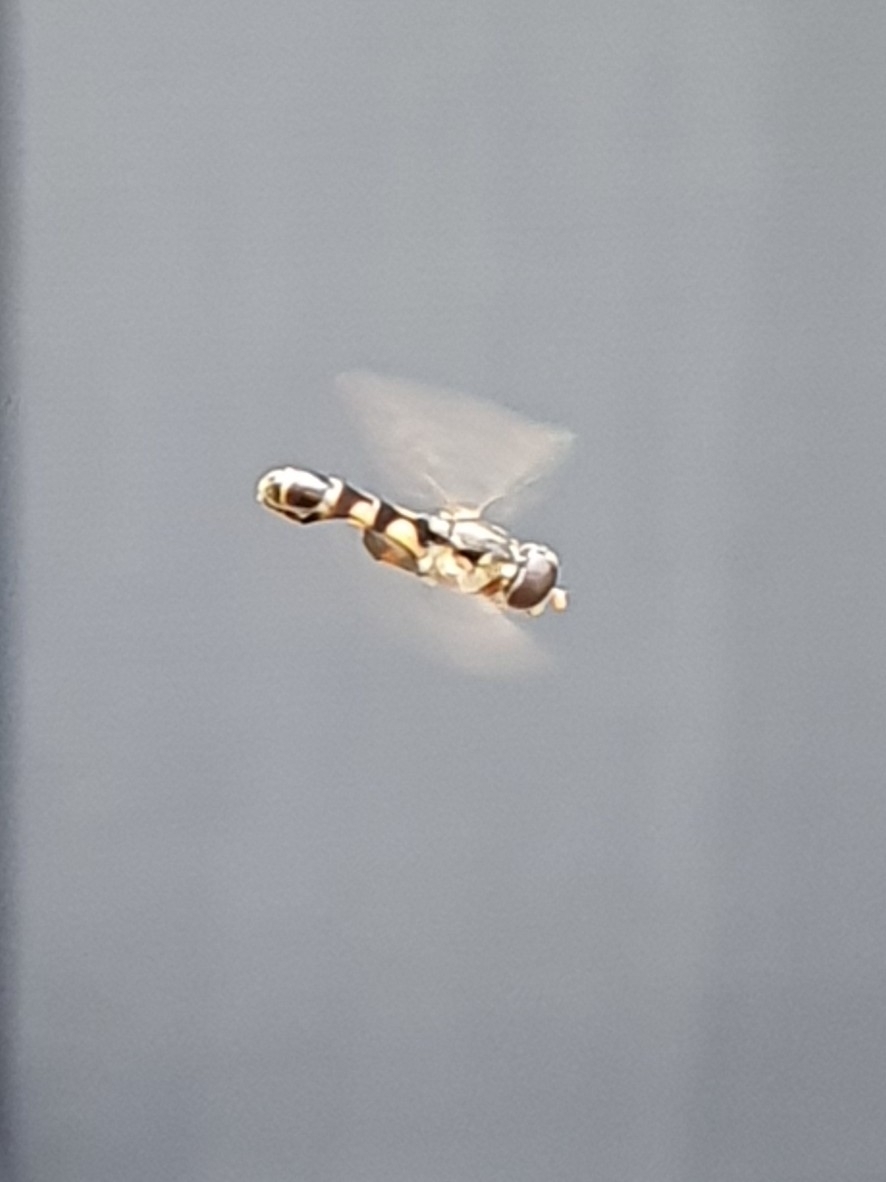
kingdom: Animalia
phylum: Arthropoda
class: Insecta
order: Diptera
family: Syrphidae
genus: Syritta
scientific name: Syritta pipiens
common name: Hover fly
